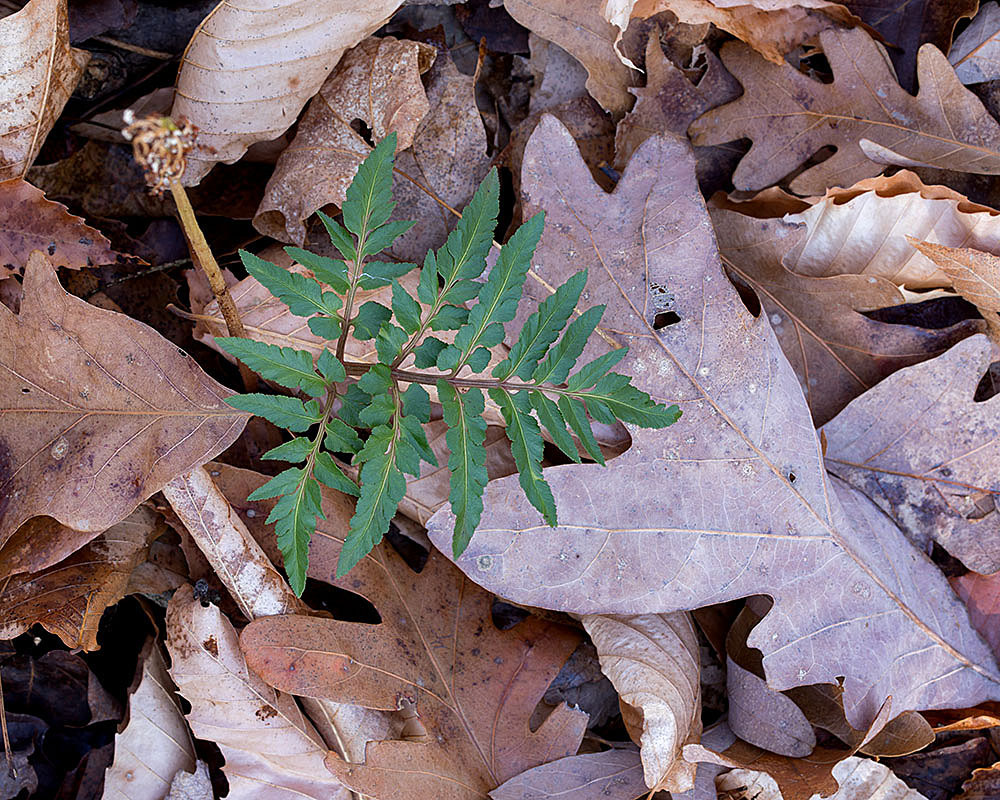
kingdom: Plantae
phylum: Tracheophyta
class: Polypodiopsida
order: Ophioglossales
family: Ophioglossaceae
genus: Sceptridium
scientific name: Sceptridium dissectum
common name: Cut-leaved grapefern
